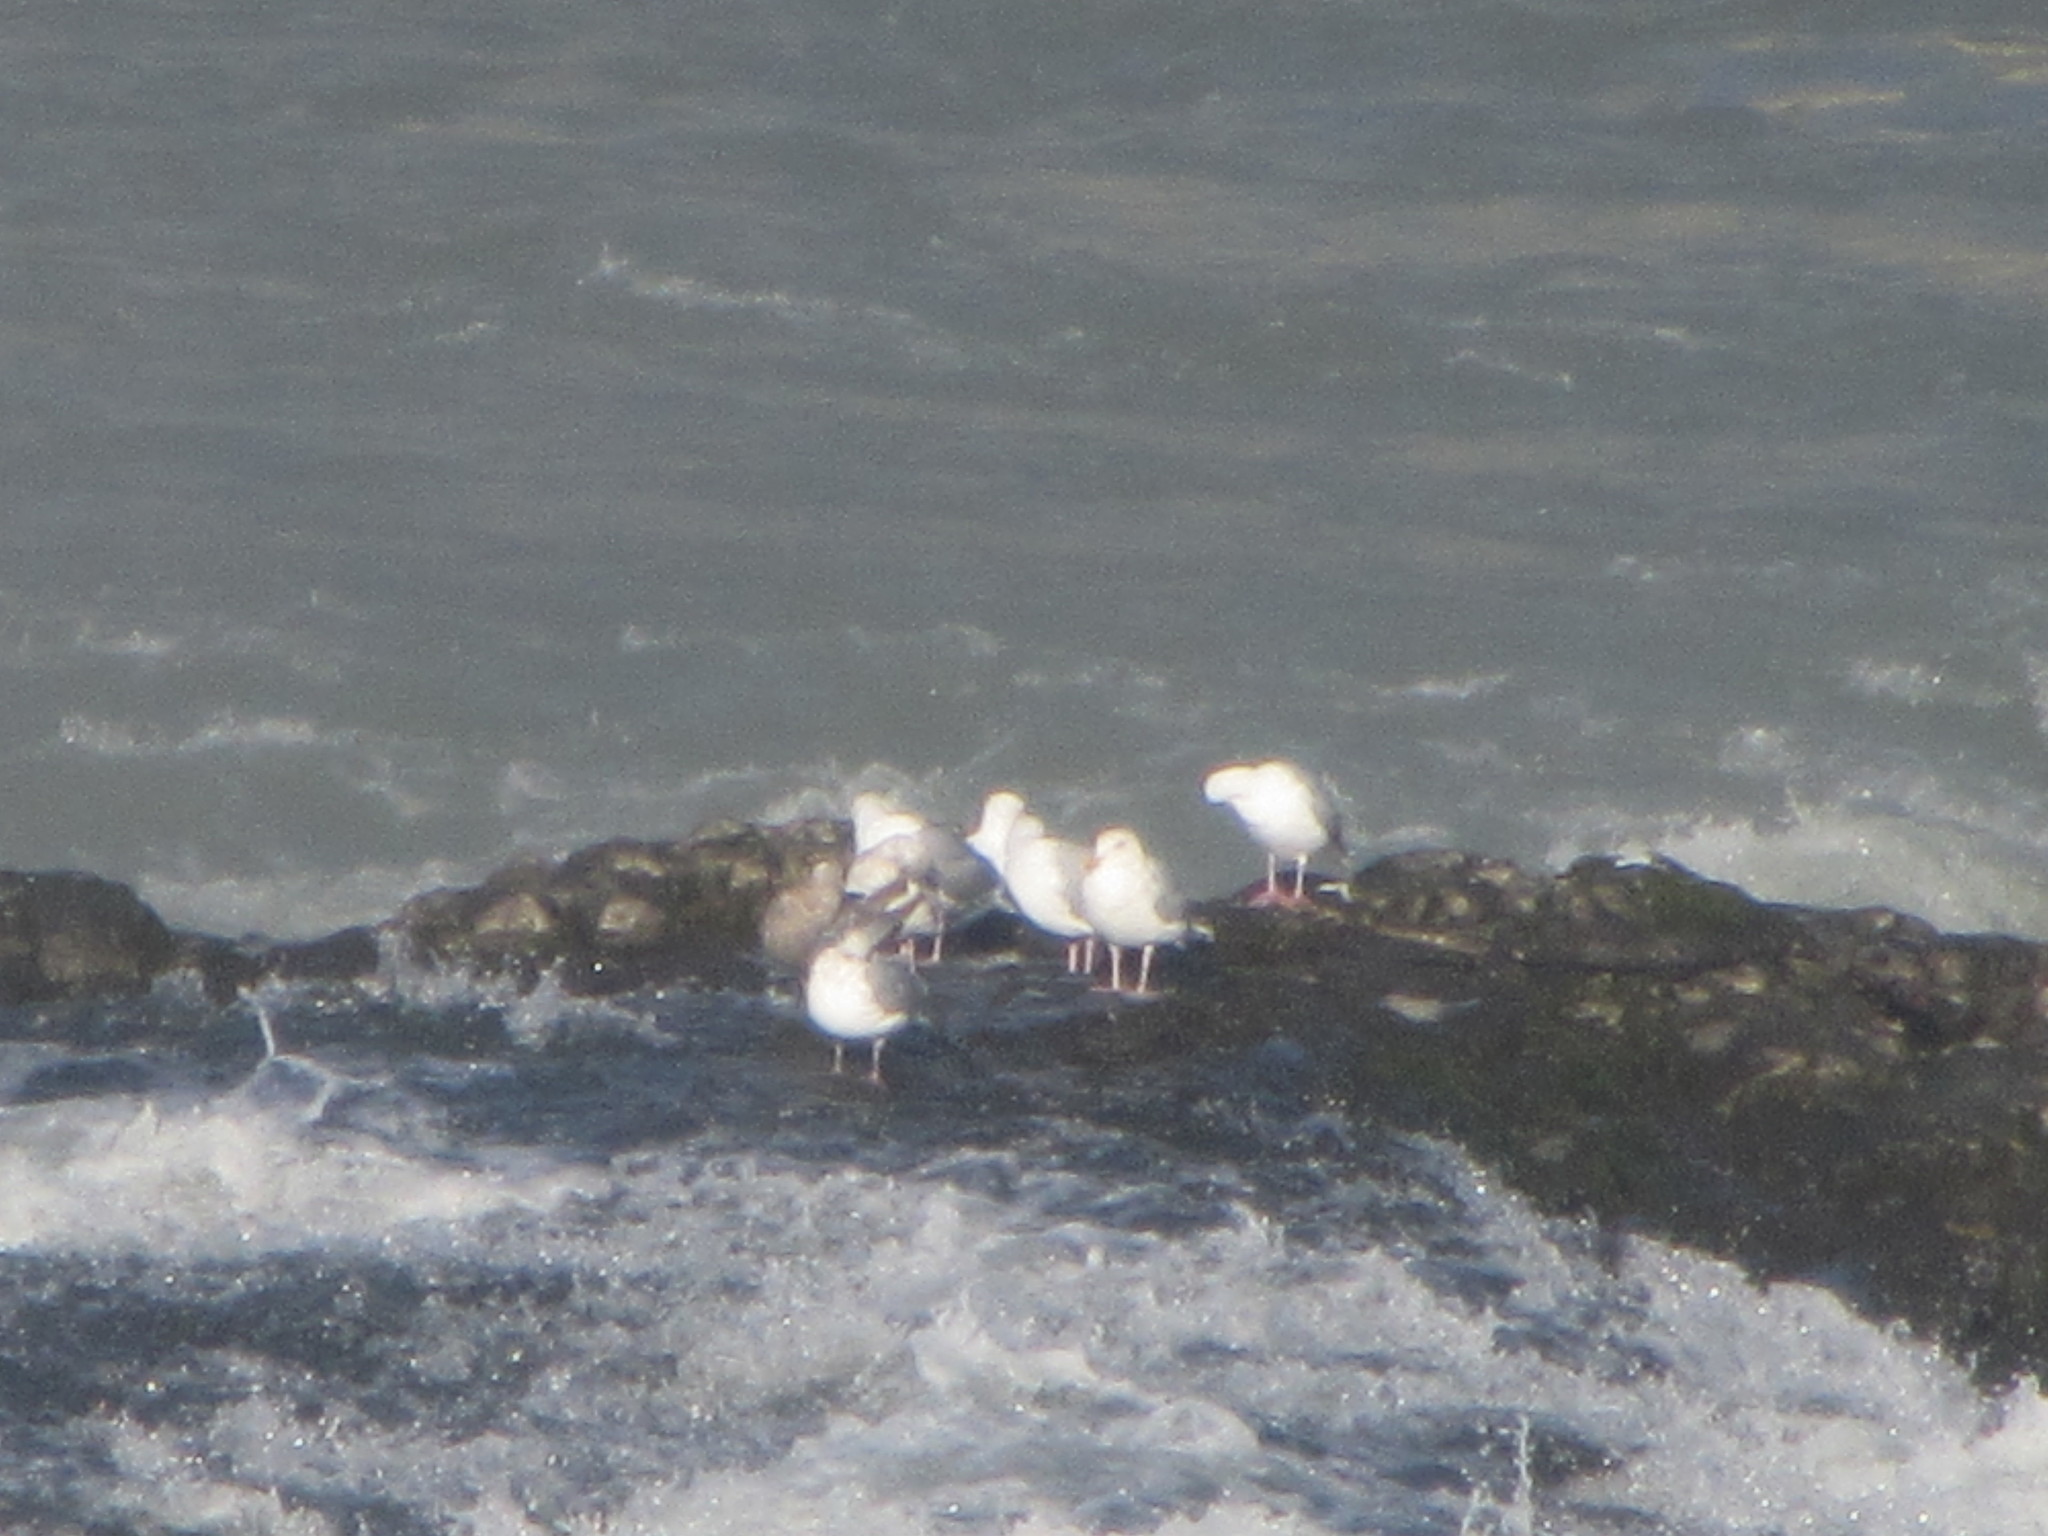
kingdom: Animalia
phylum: Chordata
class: Aves
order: Charadriiformes
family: Laridae
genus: Larus
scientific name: Larus
